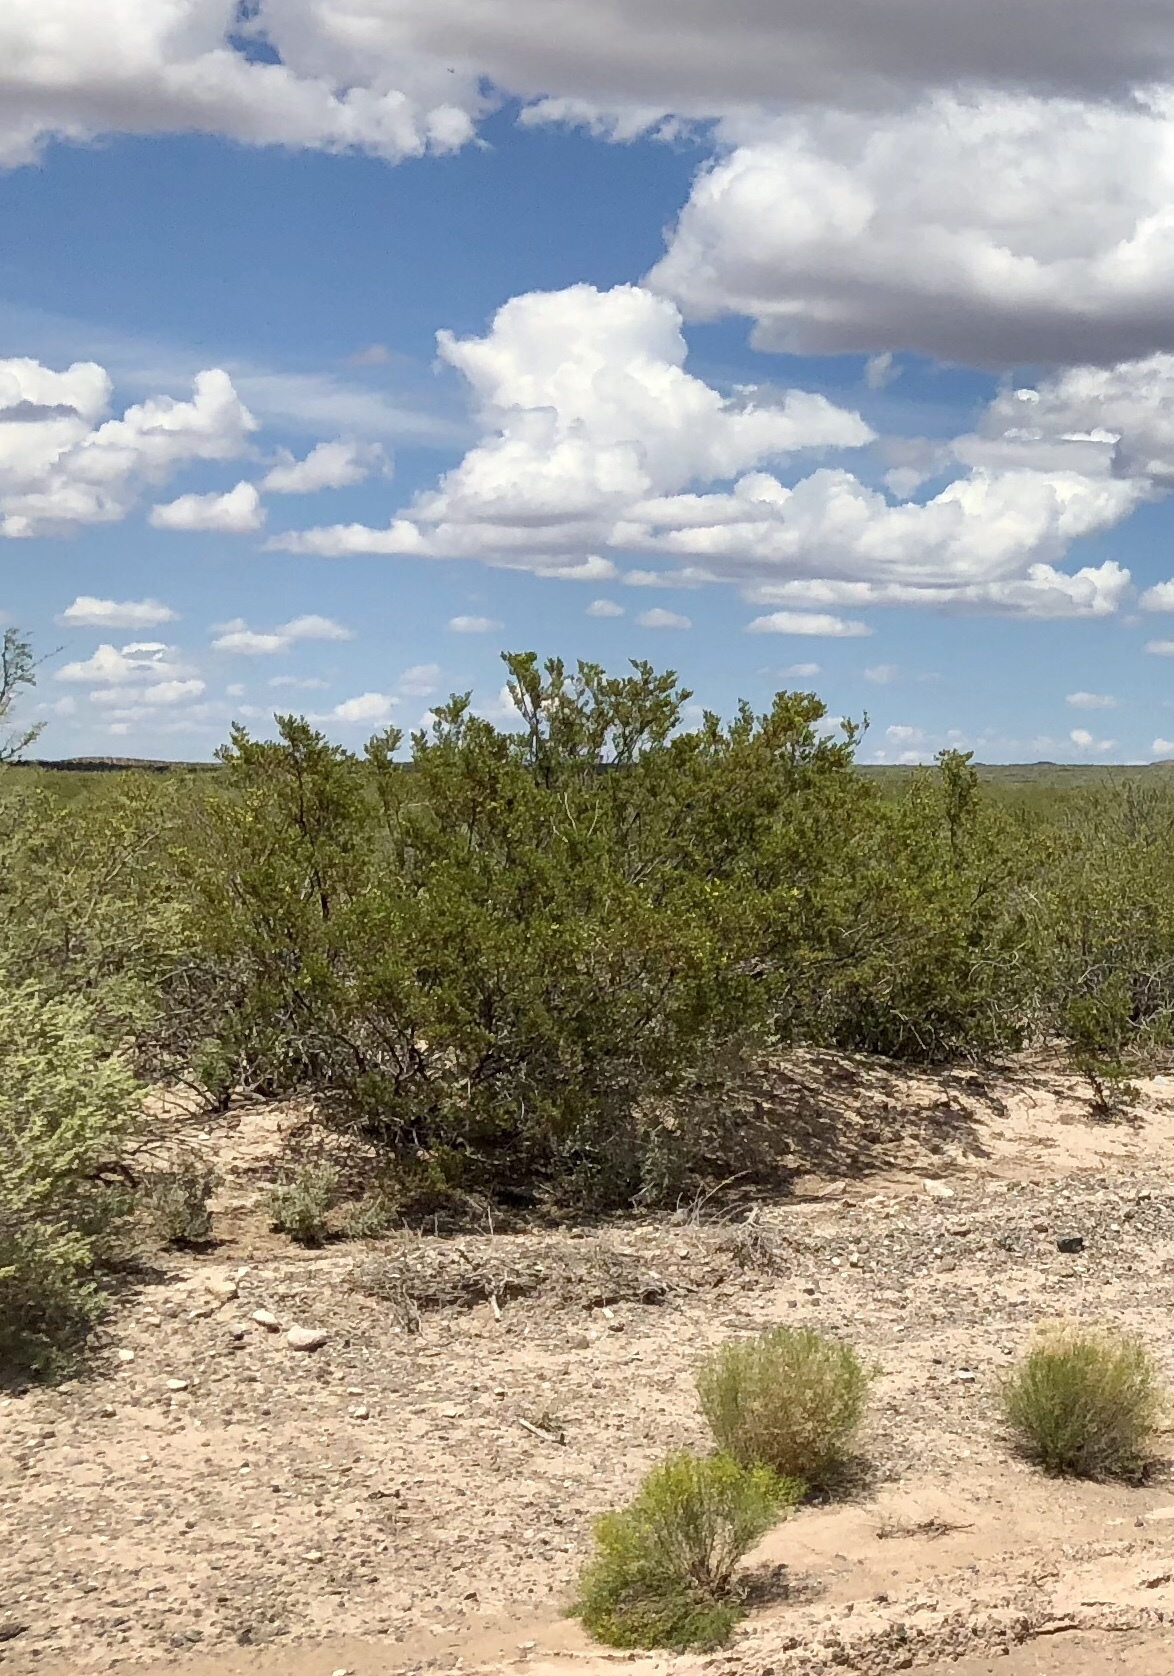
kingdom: Plantae
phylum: Tracheophyta
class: Magnoliopsida
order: Zygophyllales
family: Zygophyllaceae
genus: Larrea
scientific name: Larrea tridentata
